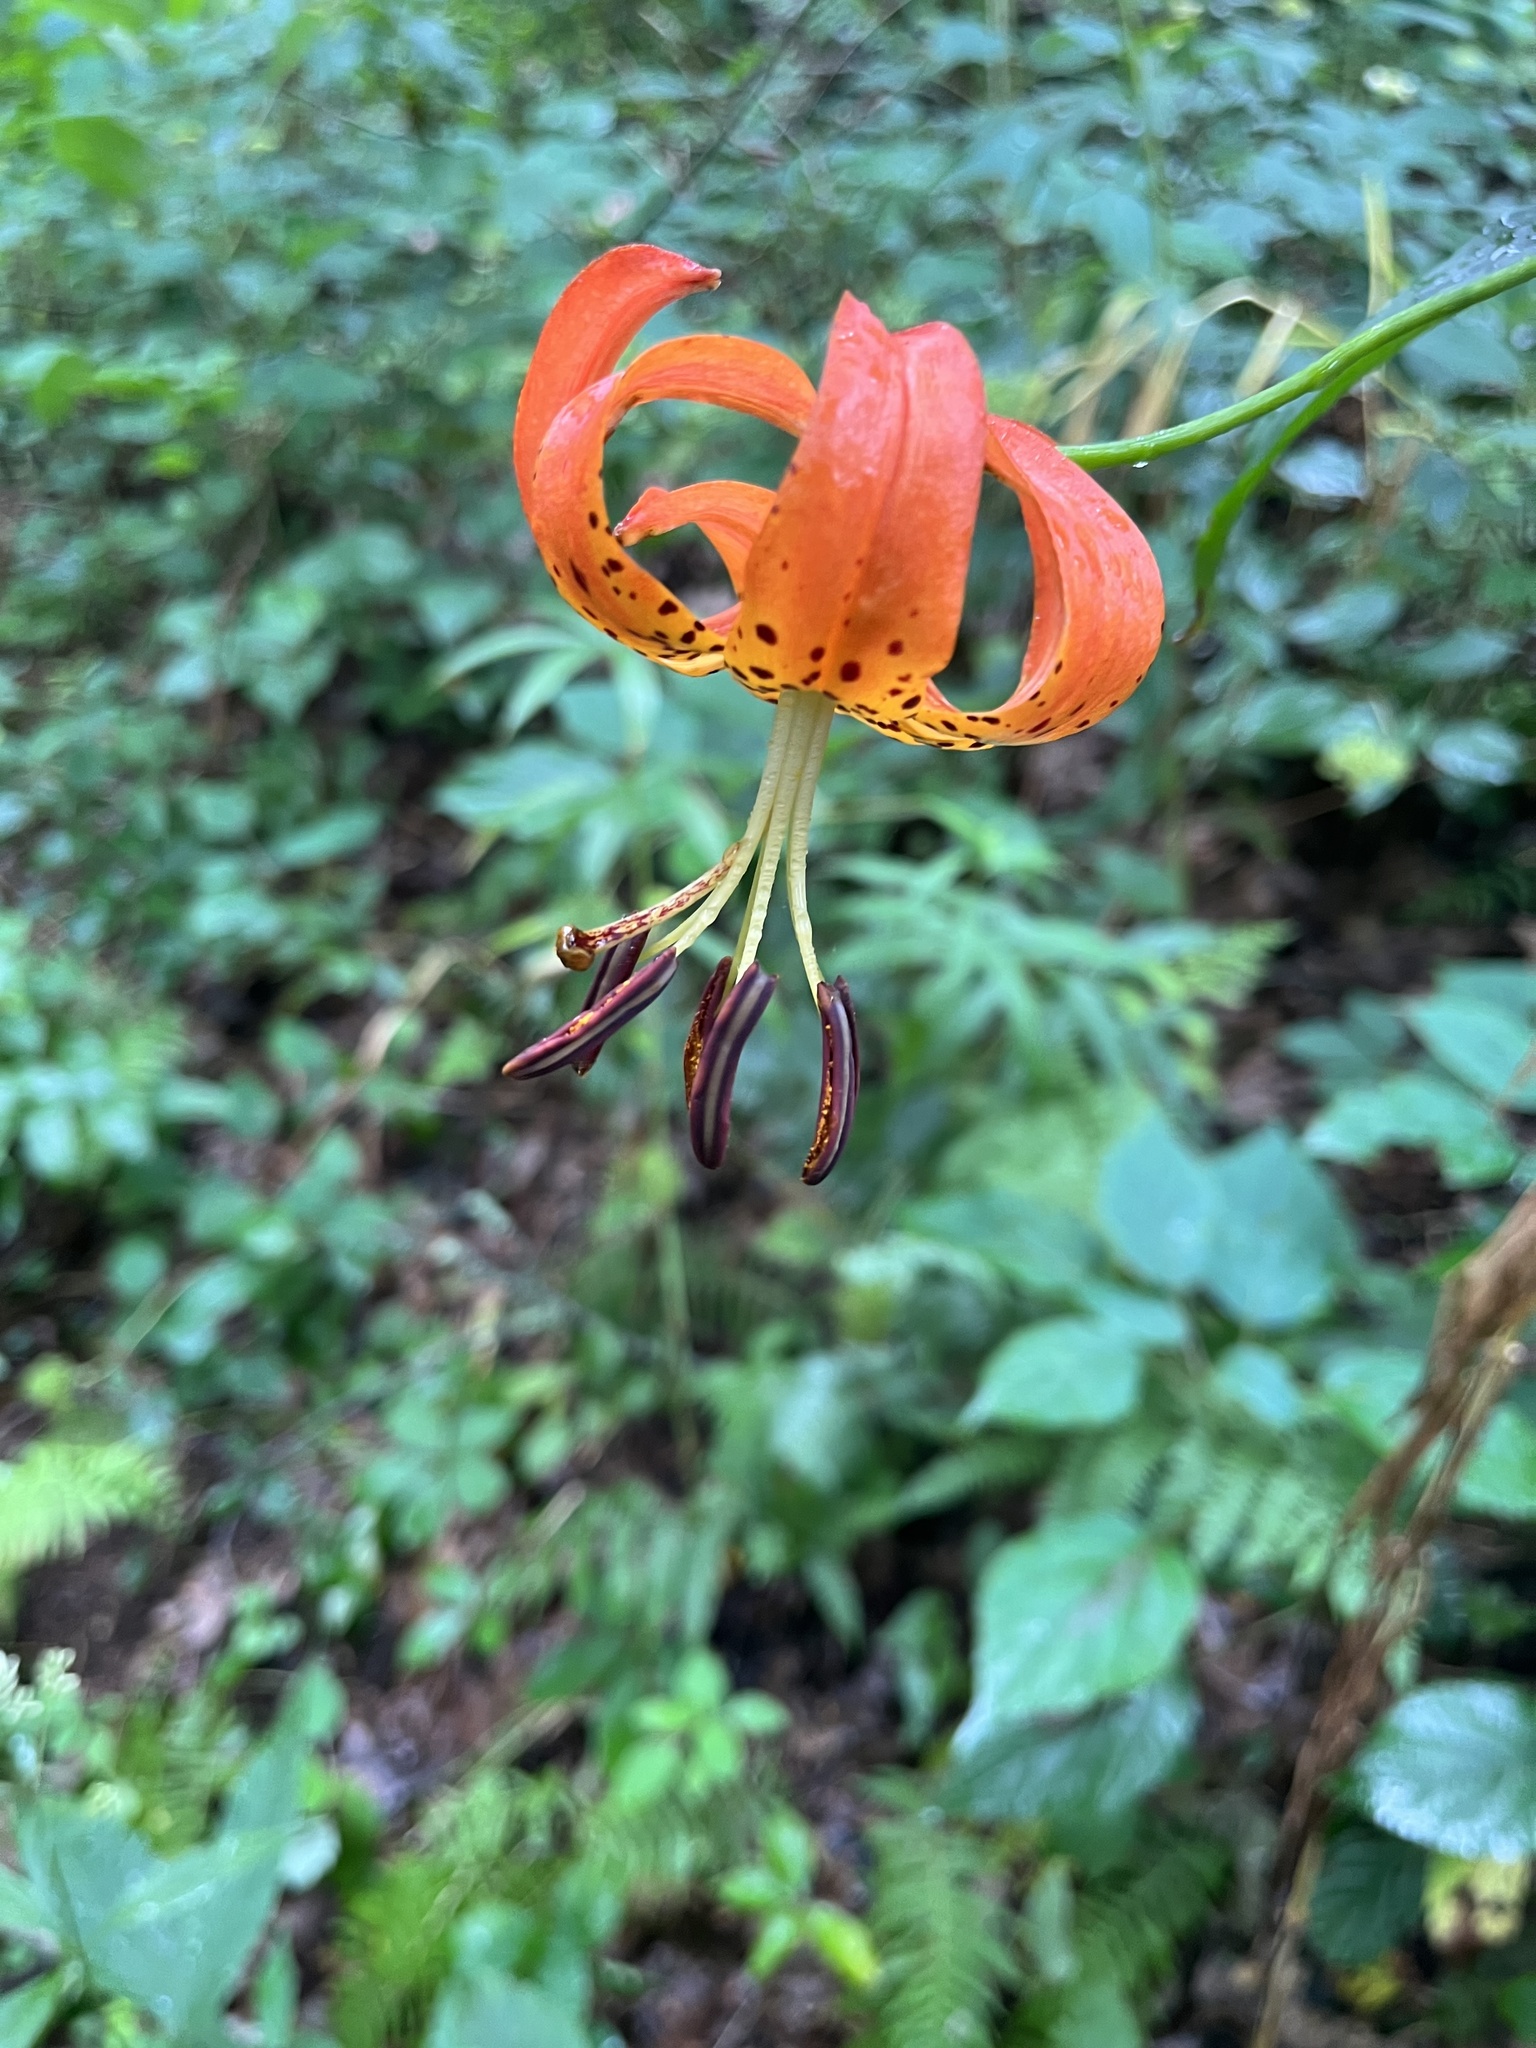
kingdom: Plantae
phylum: Tracheophyta
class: Liliopsida
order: Liliales
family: Liliaceae
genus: Lilium
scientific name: Lilium michauxii
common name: Carolina lily
